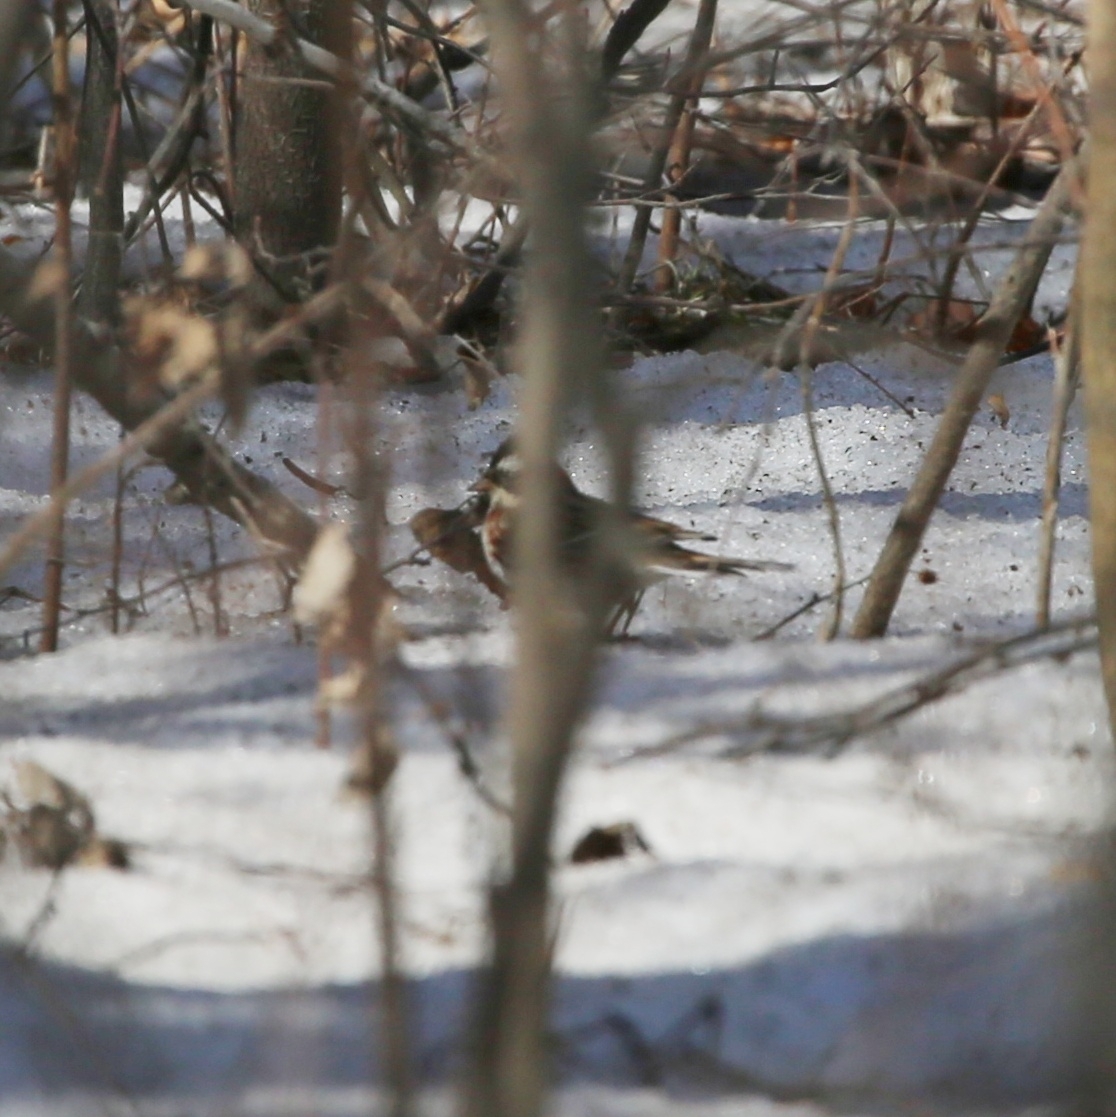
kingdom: Animalia
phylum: Chordata
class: Aves
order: Passeriformes
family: Emberizidae
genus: Emberiza
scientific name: Emberiza rustica
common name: Rustic bunting
